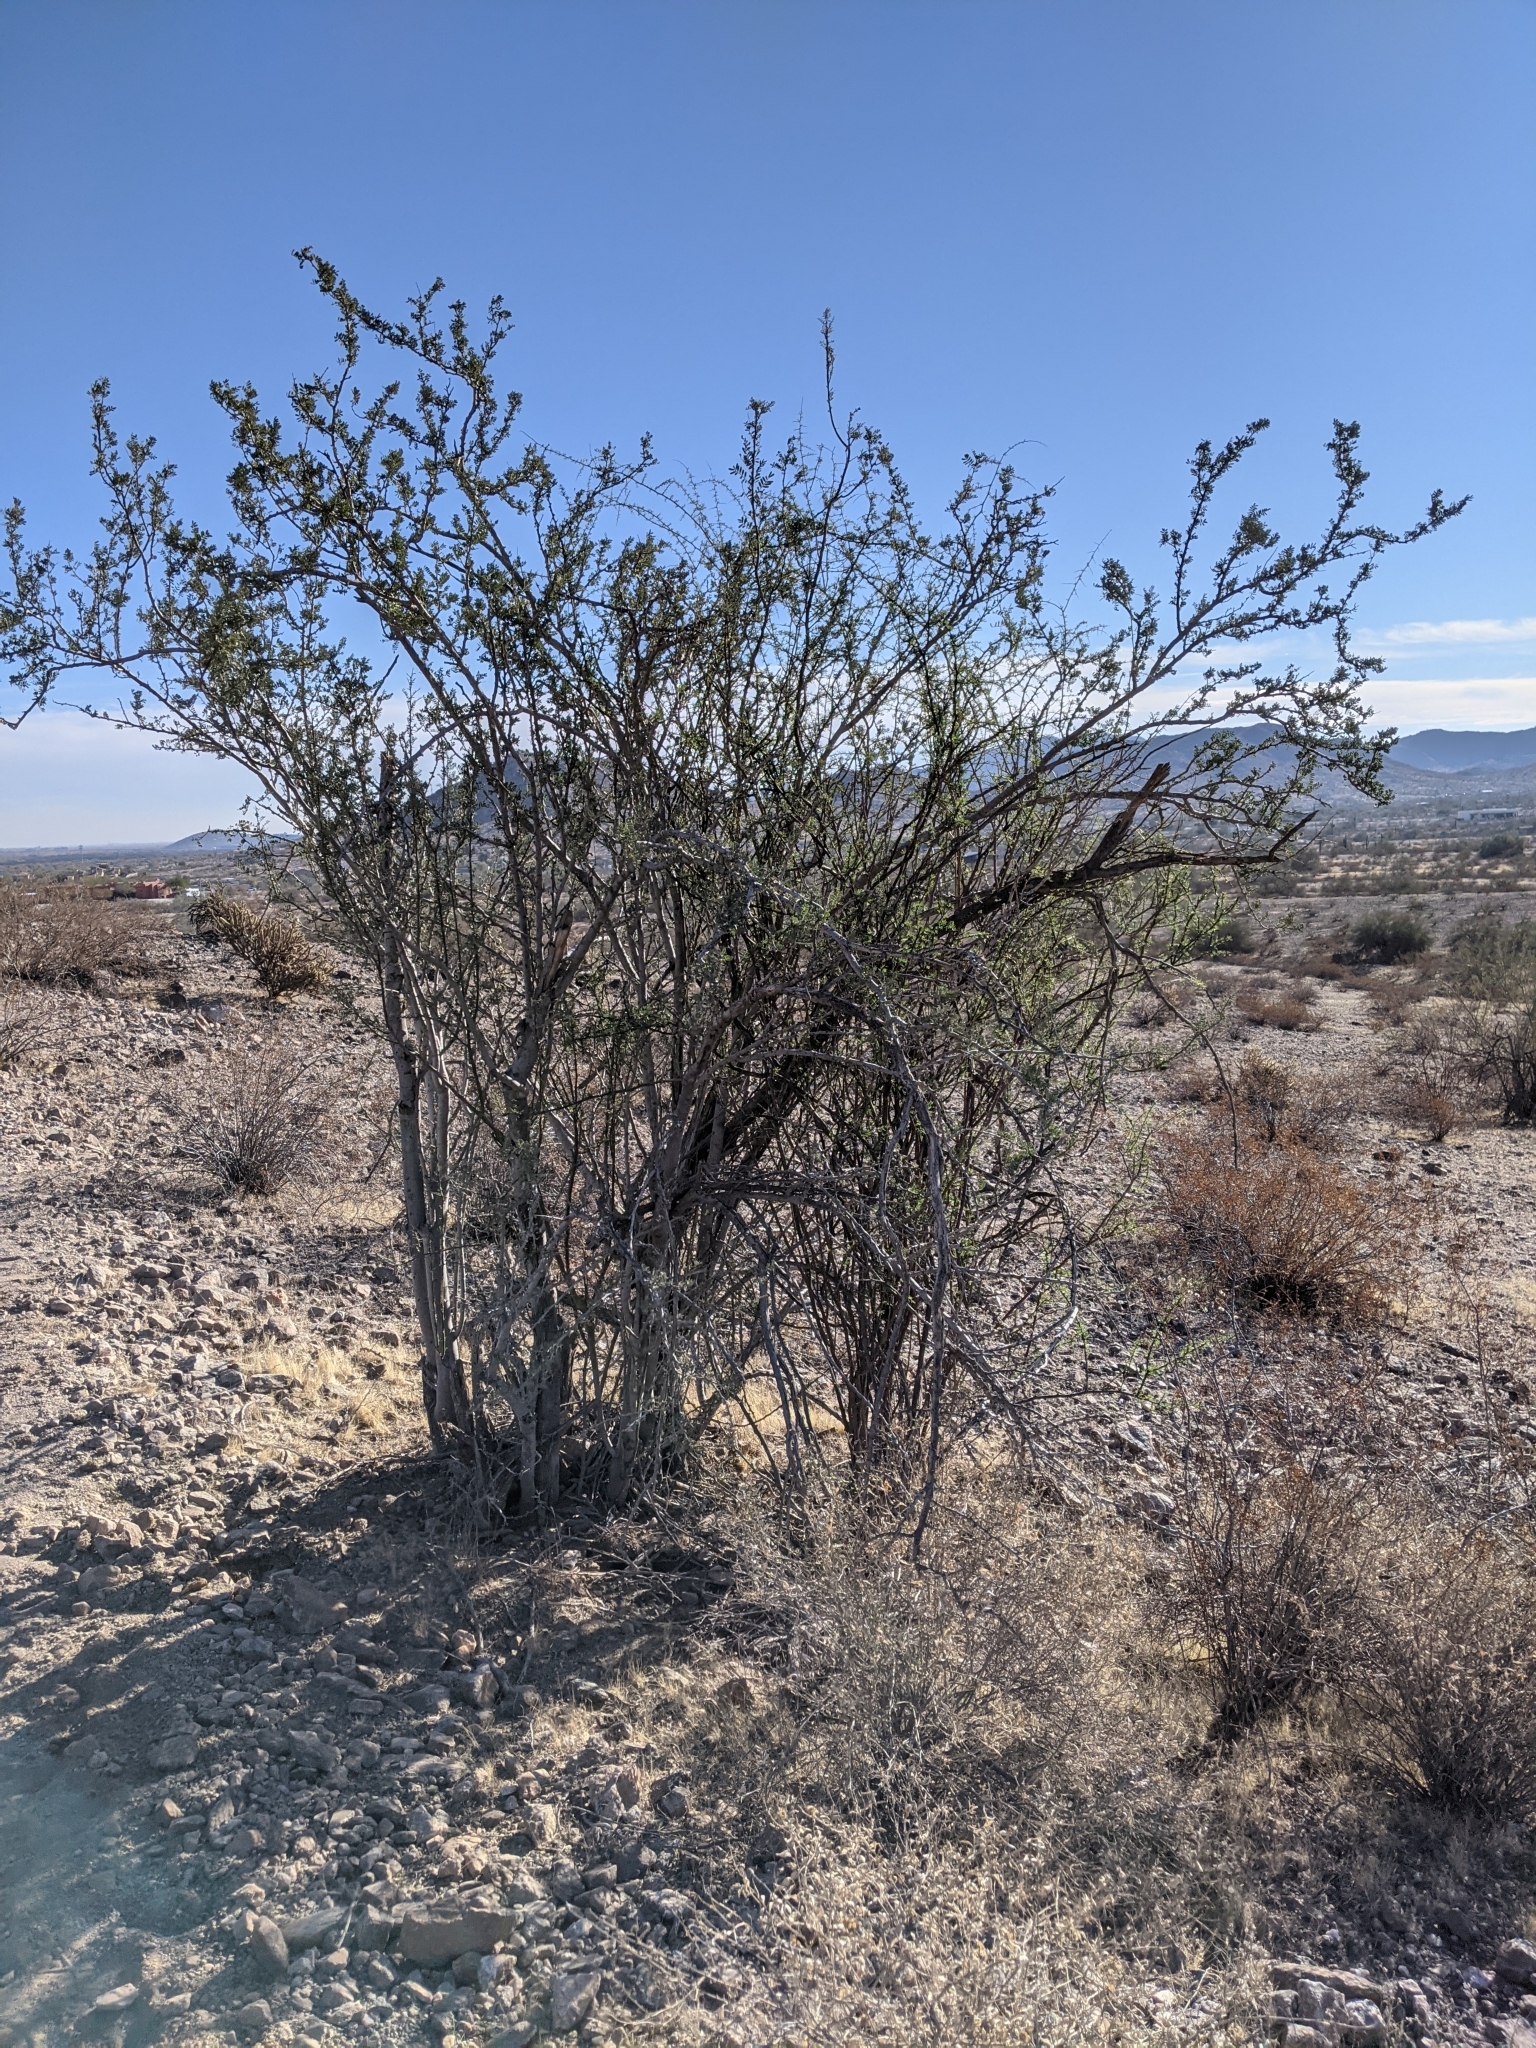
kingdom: Plantae
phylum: Tracheophyta
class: Magnoliopsida
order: Fabales
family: Fabaceae
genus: Olneya
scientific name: Olneya tesota
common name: Desert ironwood
